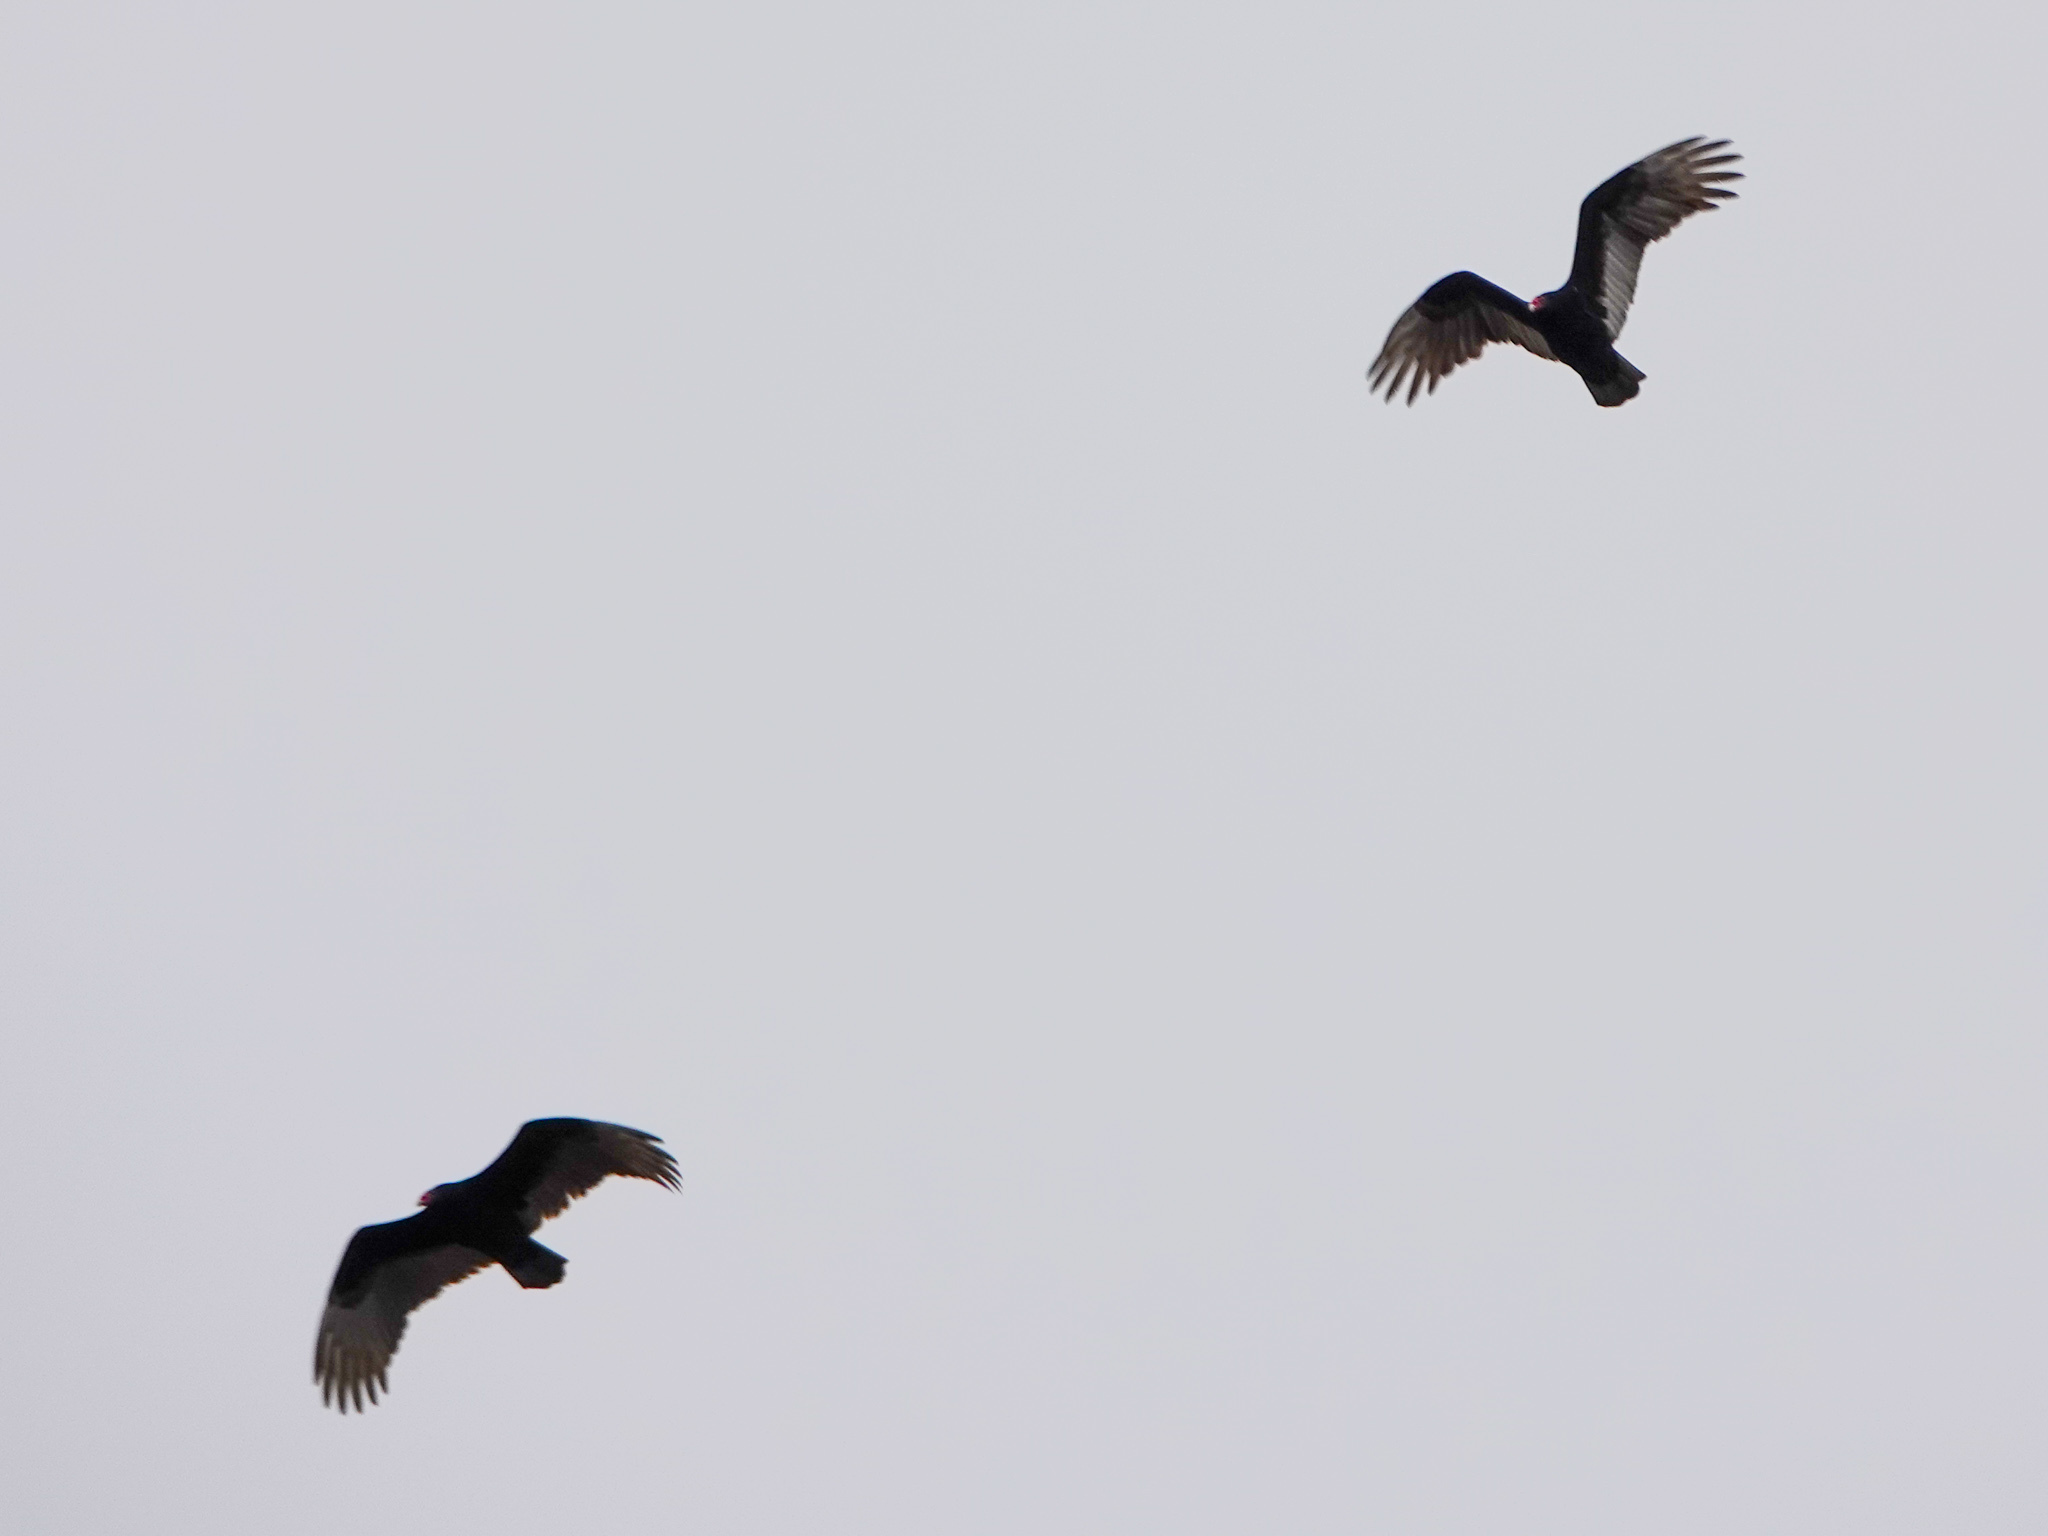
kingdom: Animalia
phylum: Chordata
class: Aves
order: Accipitriformes
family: Cathartidae
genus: Cathartes
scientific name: Cathartes aura
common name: Turkey vulture
